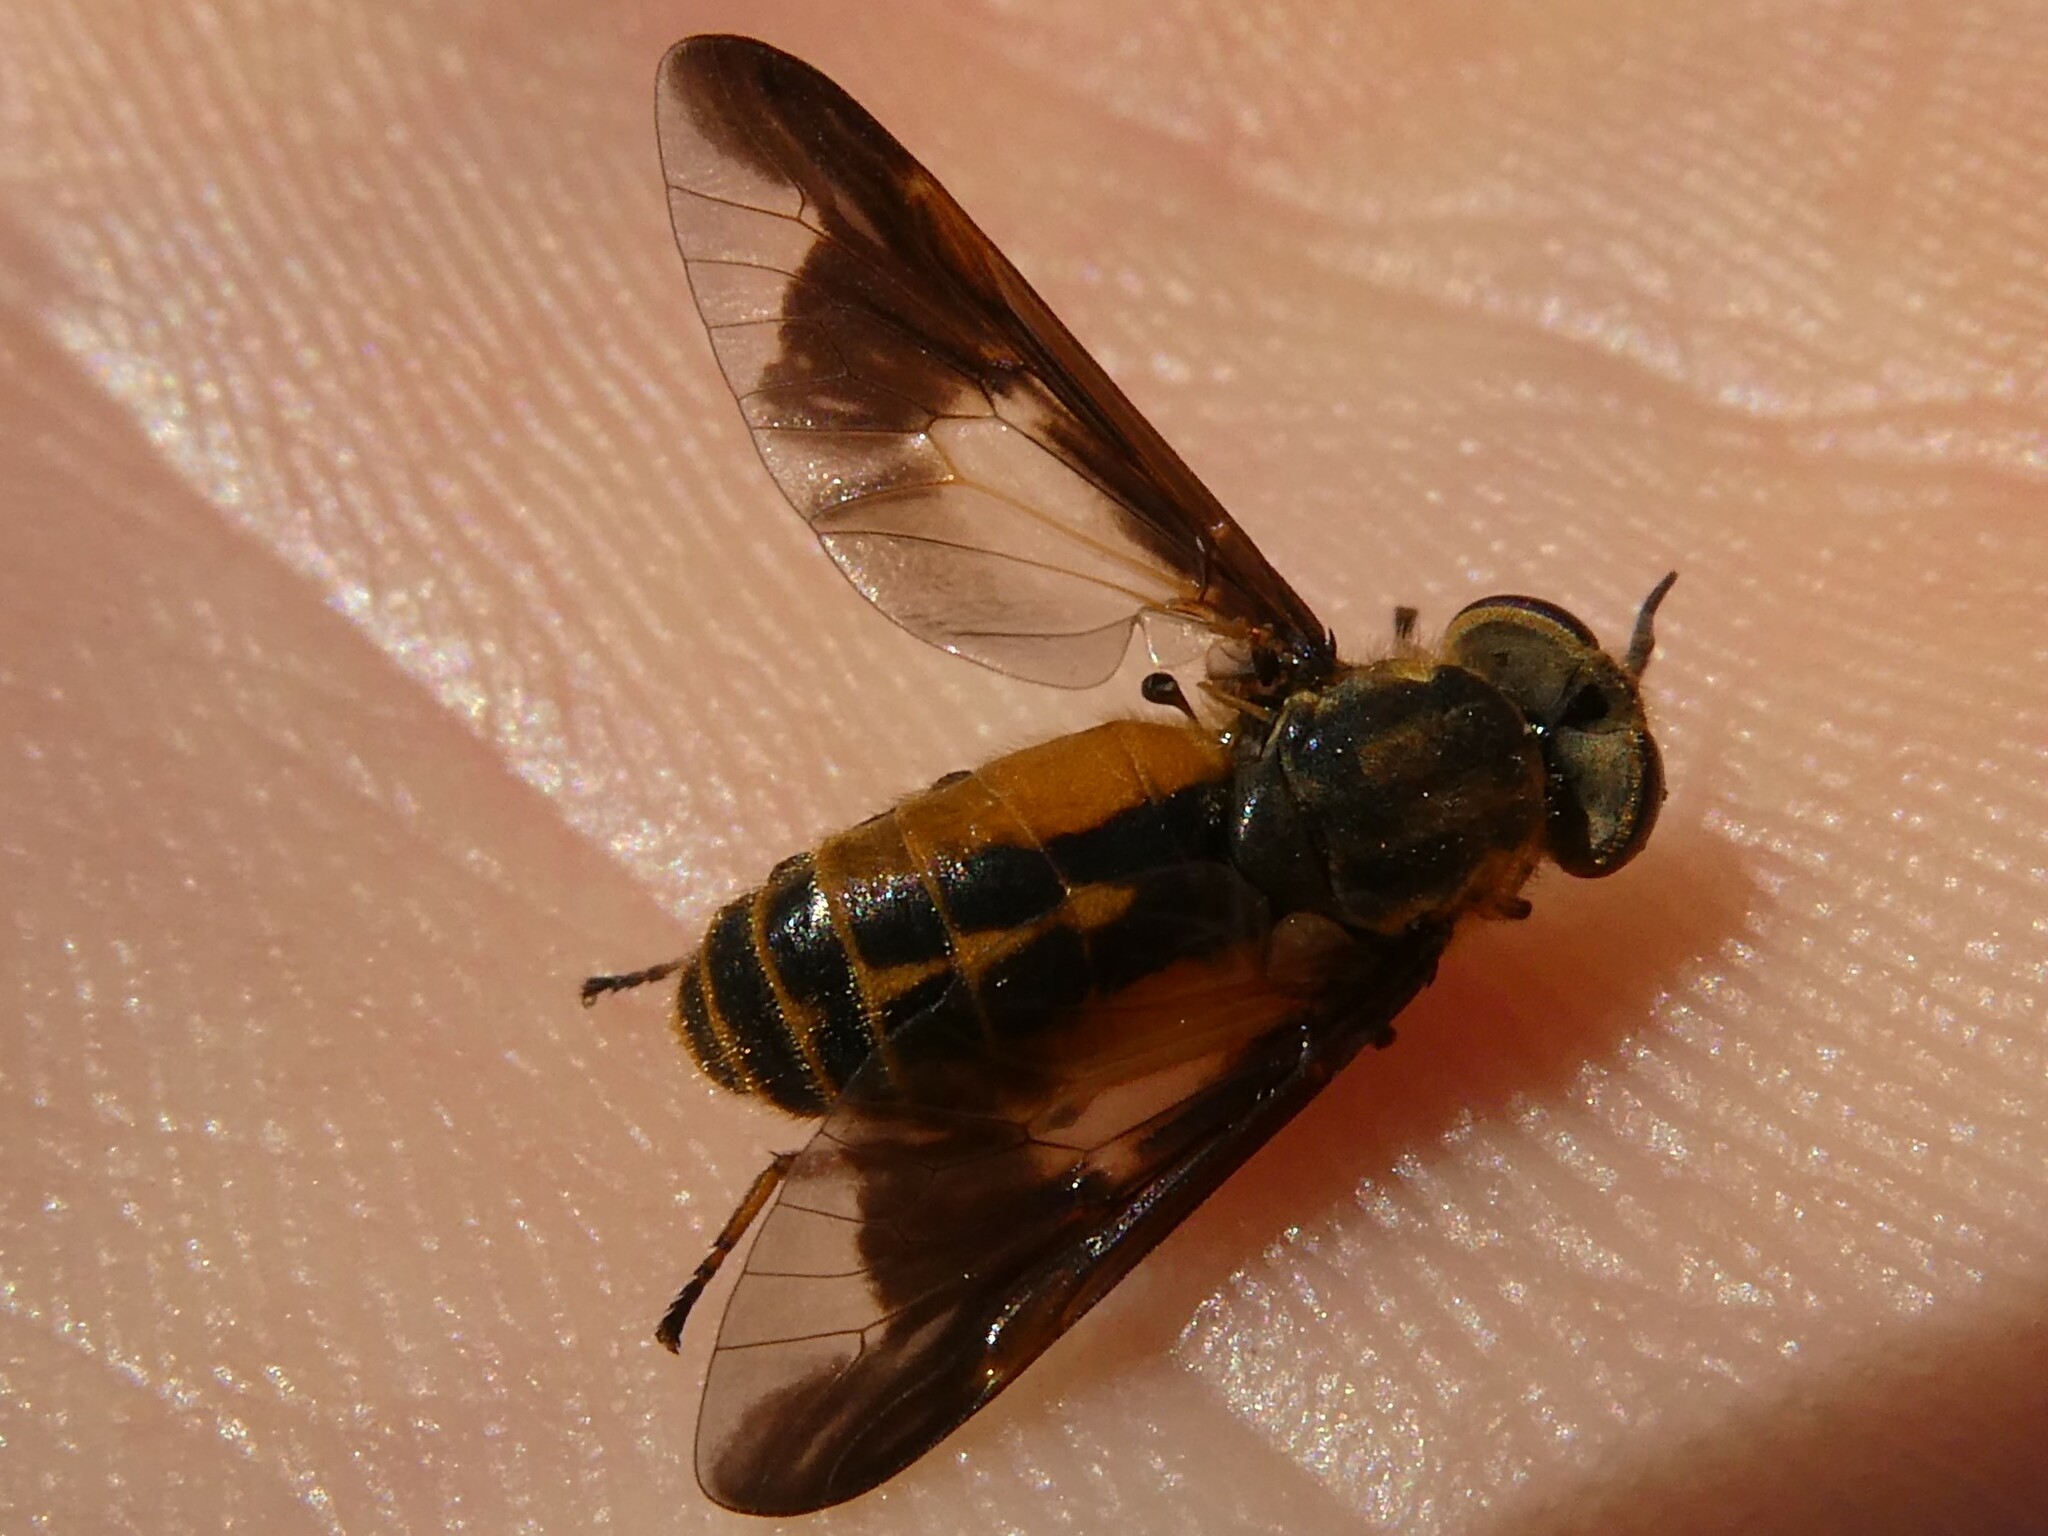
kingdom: Animalia
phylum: Arthropoda
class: Insecta
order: Diptera
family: Tabanidae
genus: Chrysops
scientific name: Chrysops indus
